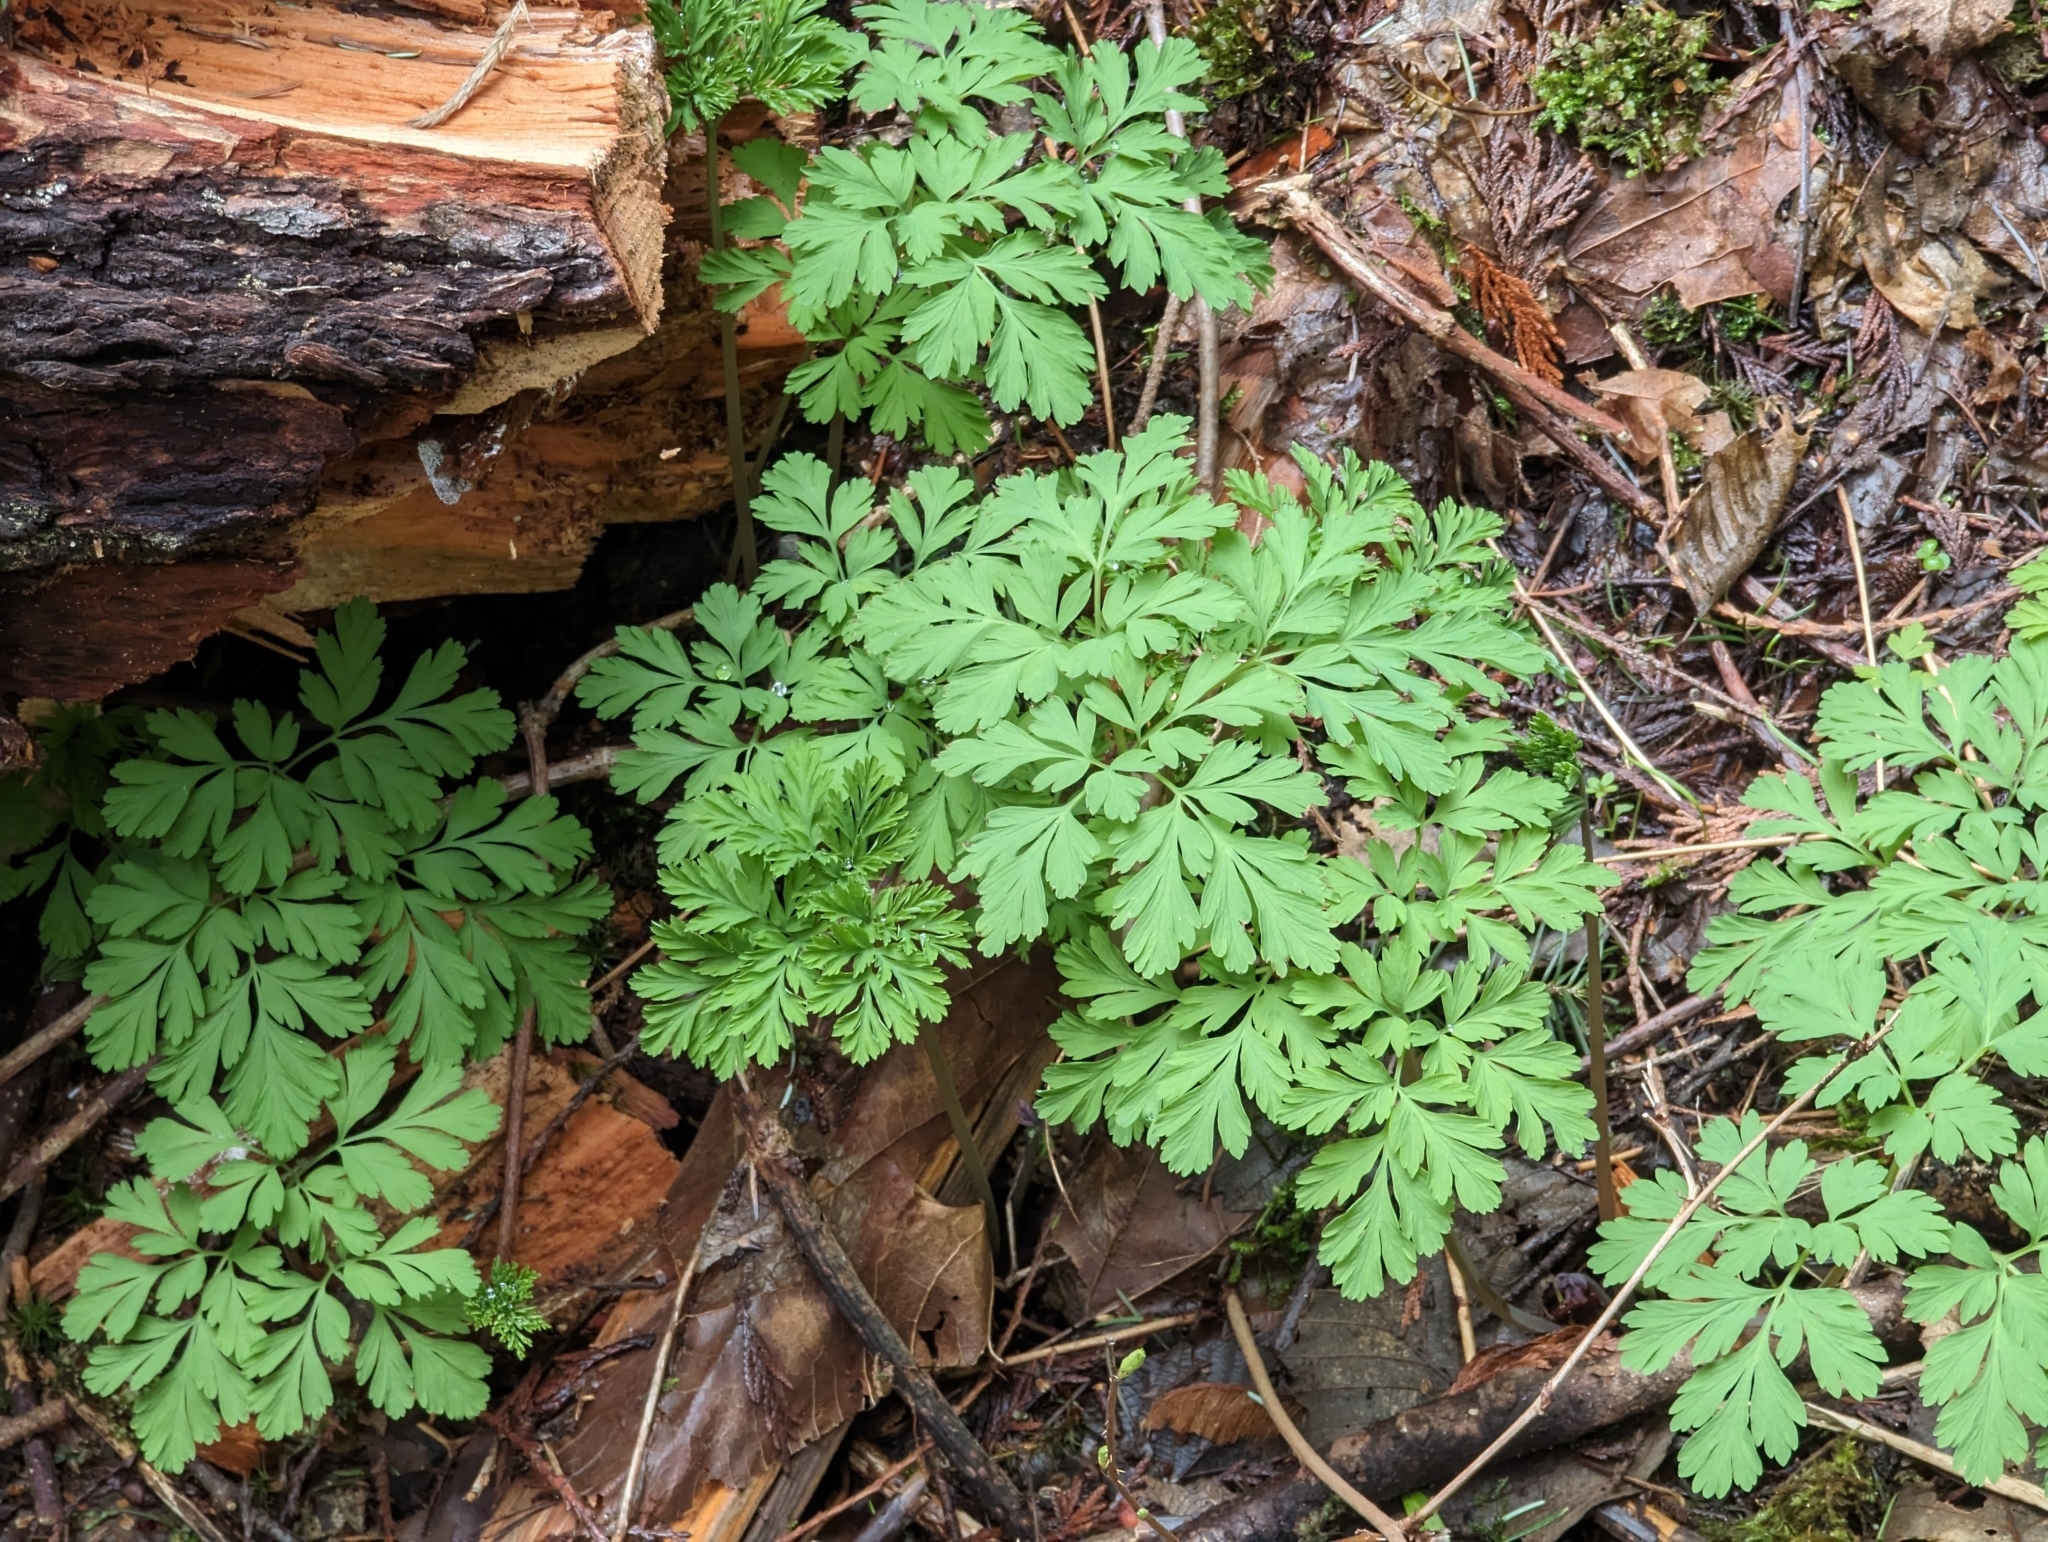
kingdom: Plantae
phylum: Tracheophyta
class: Magnoliopsida
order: Ranunculales
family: Papaveraceae
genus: Dicentra
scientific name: Dicentra formosa
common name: Bleeding-heart
